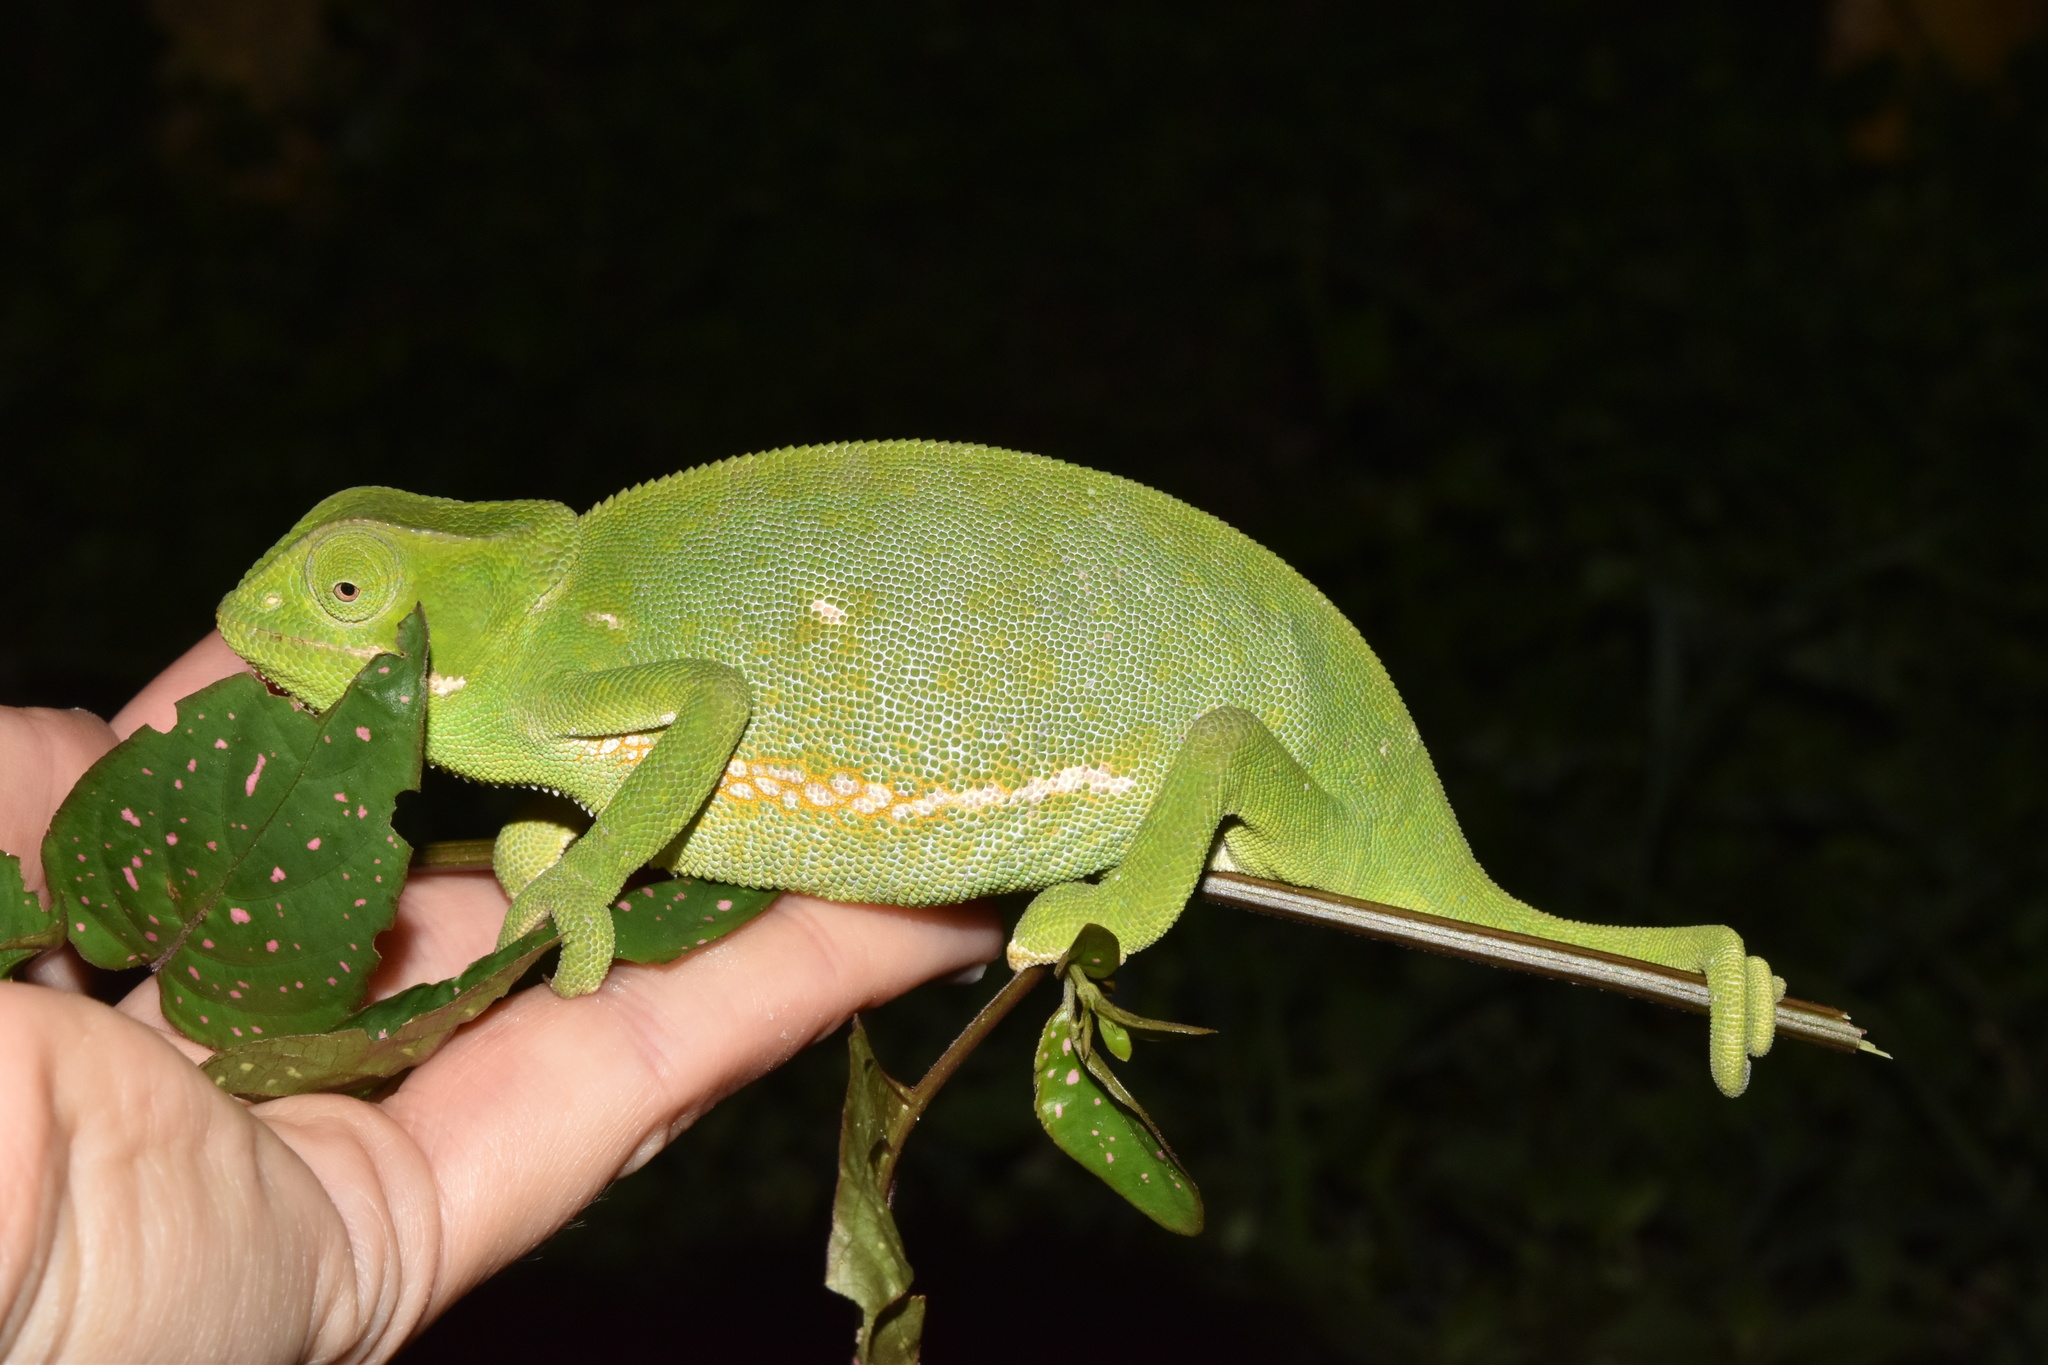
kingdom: Animalia
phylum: Chordata
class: Squamata
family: Chamaeleonidae
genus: Chamaeleo
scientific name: Chamaeleo dilepis
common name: Flapneck chameleon
